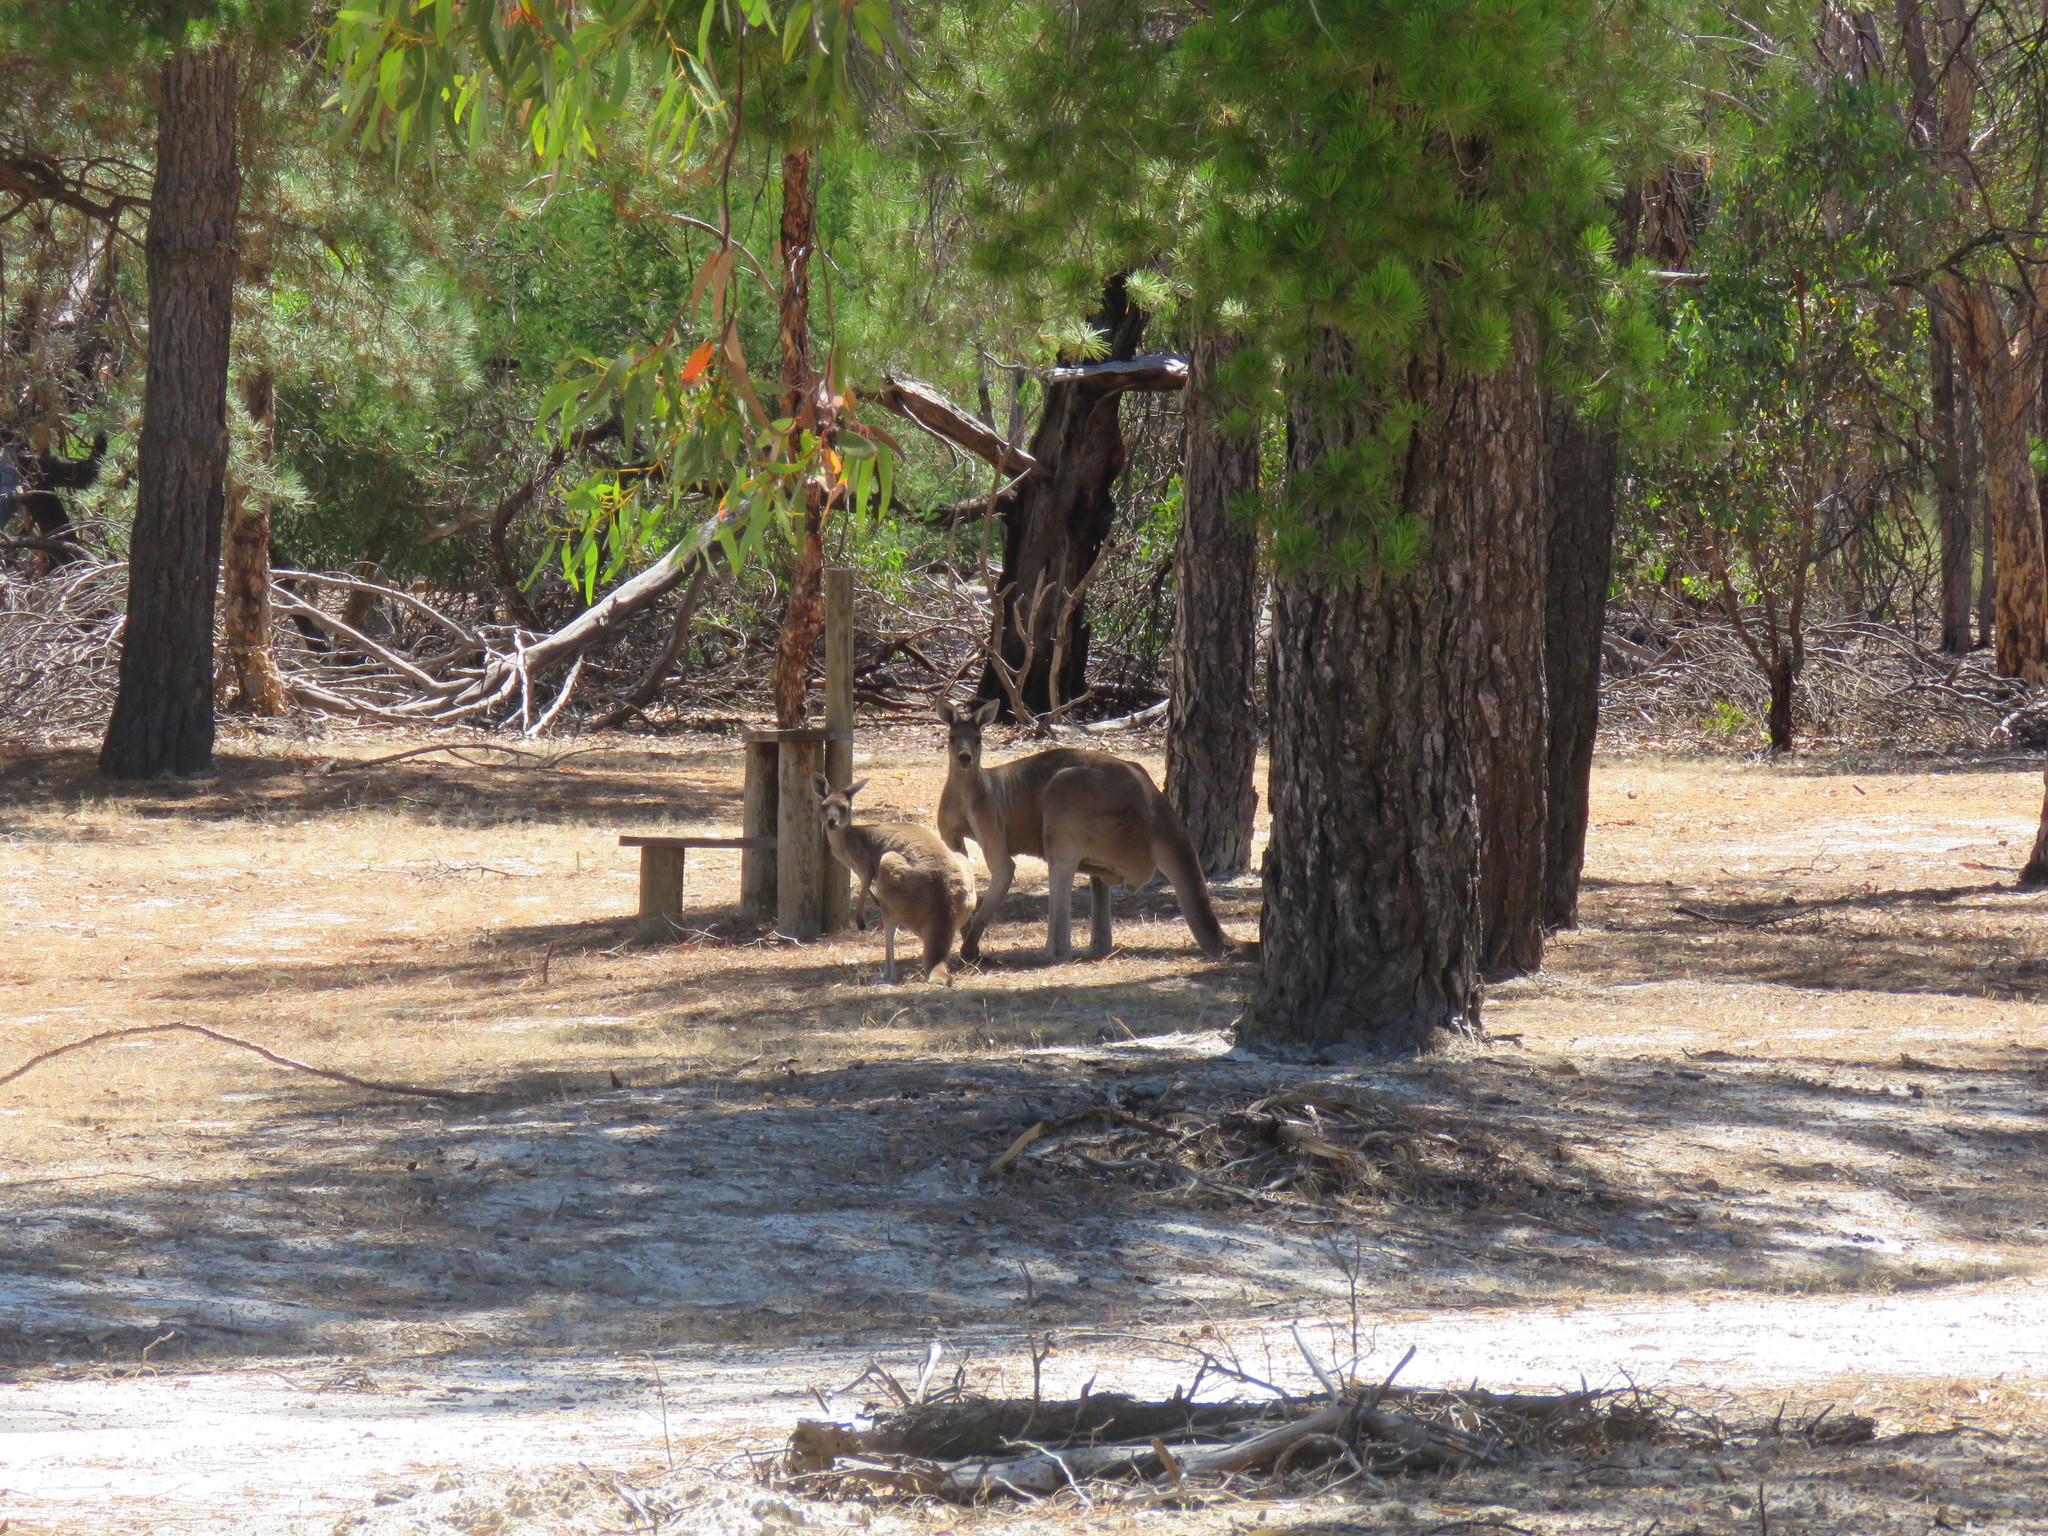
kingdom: Animalia
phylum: Chordata
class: Mammalia
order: Diprotodontia
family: Macropodidae
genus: Macropus
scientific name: Macropus fuliginosus
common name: Western grey kangaroo
